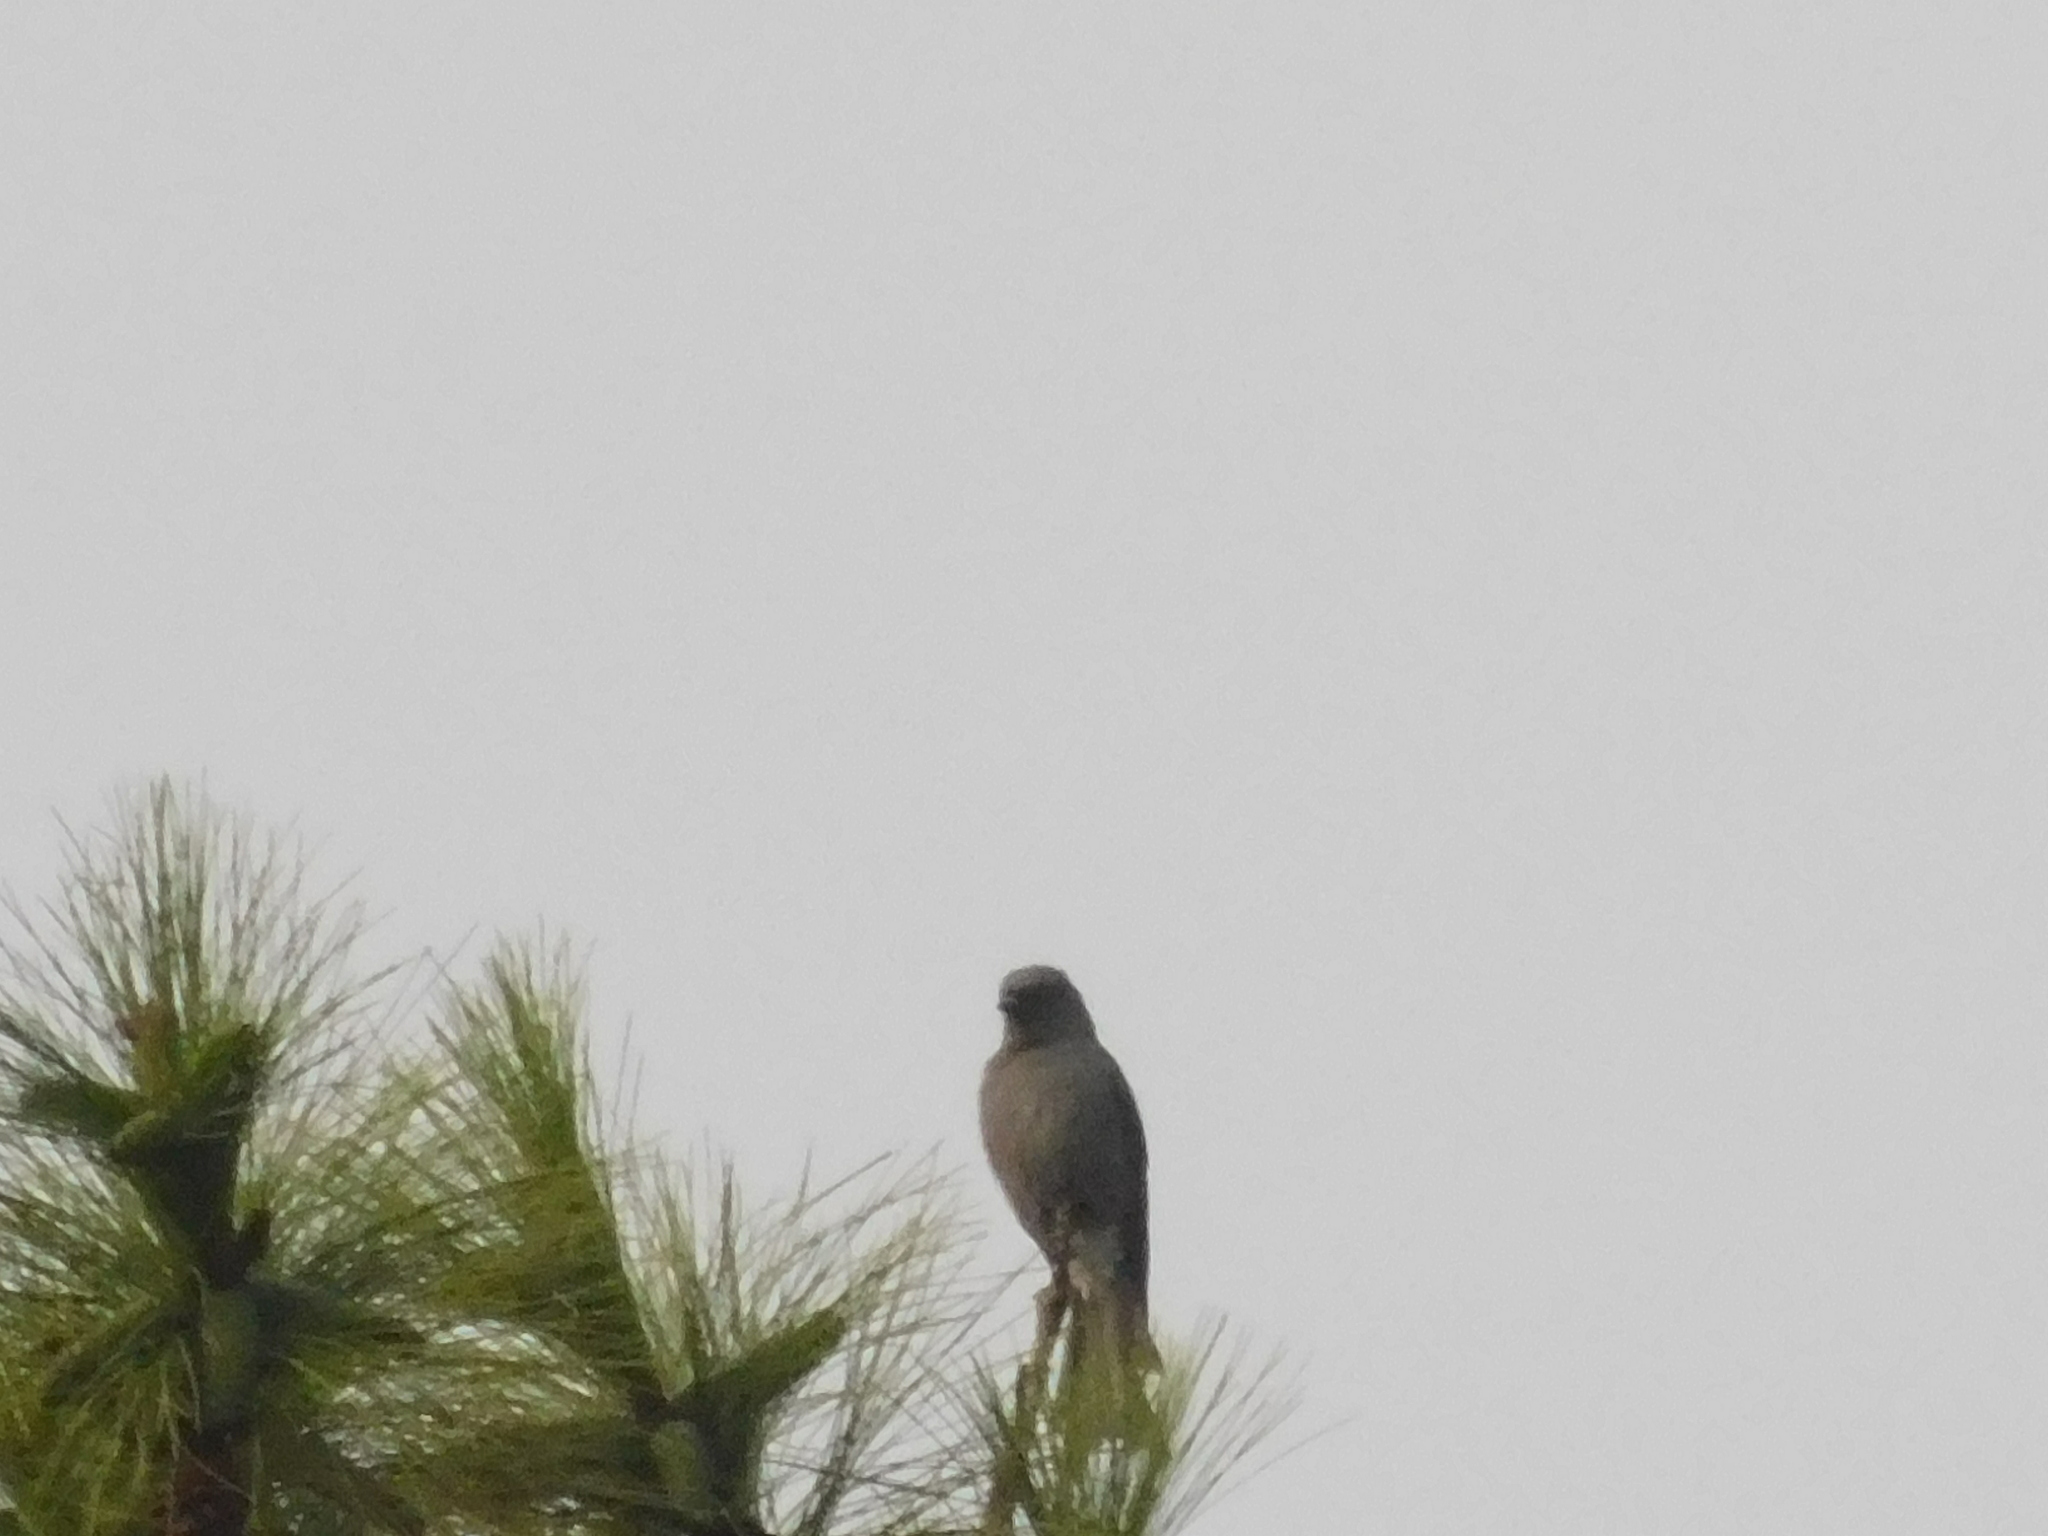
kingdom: Animalia
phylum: Chordata
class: Aves
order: Passeriformes
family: Dicruridae
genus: Dicrurus
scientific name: Dicrurus leucophaeus
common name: Ashy drongo
